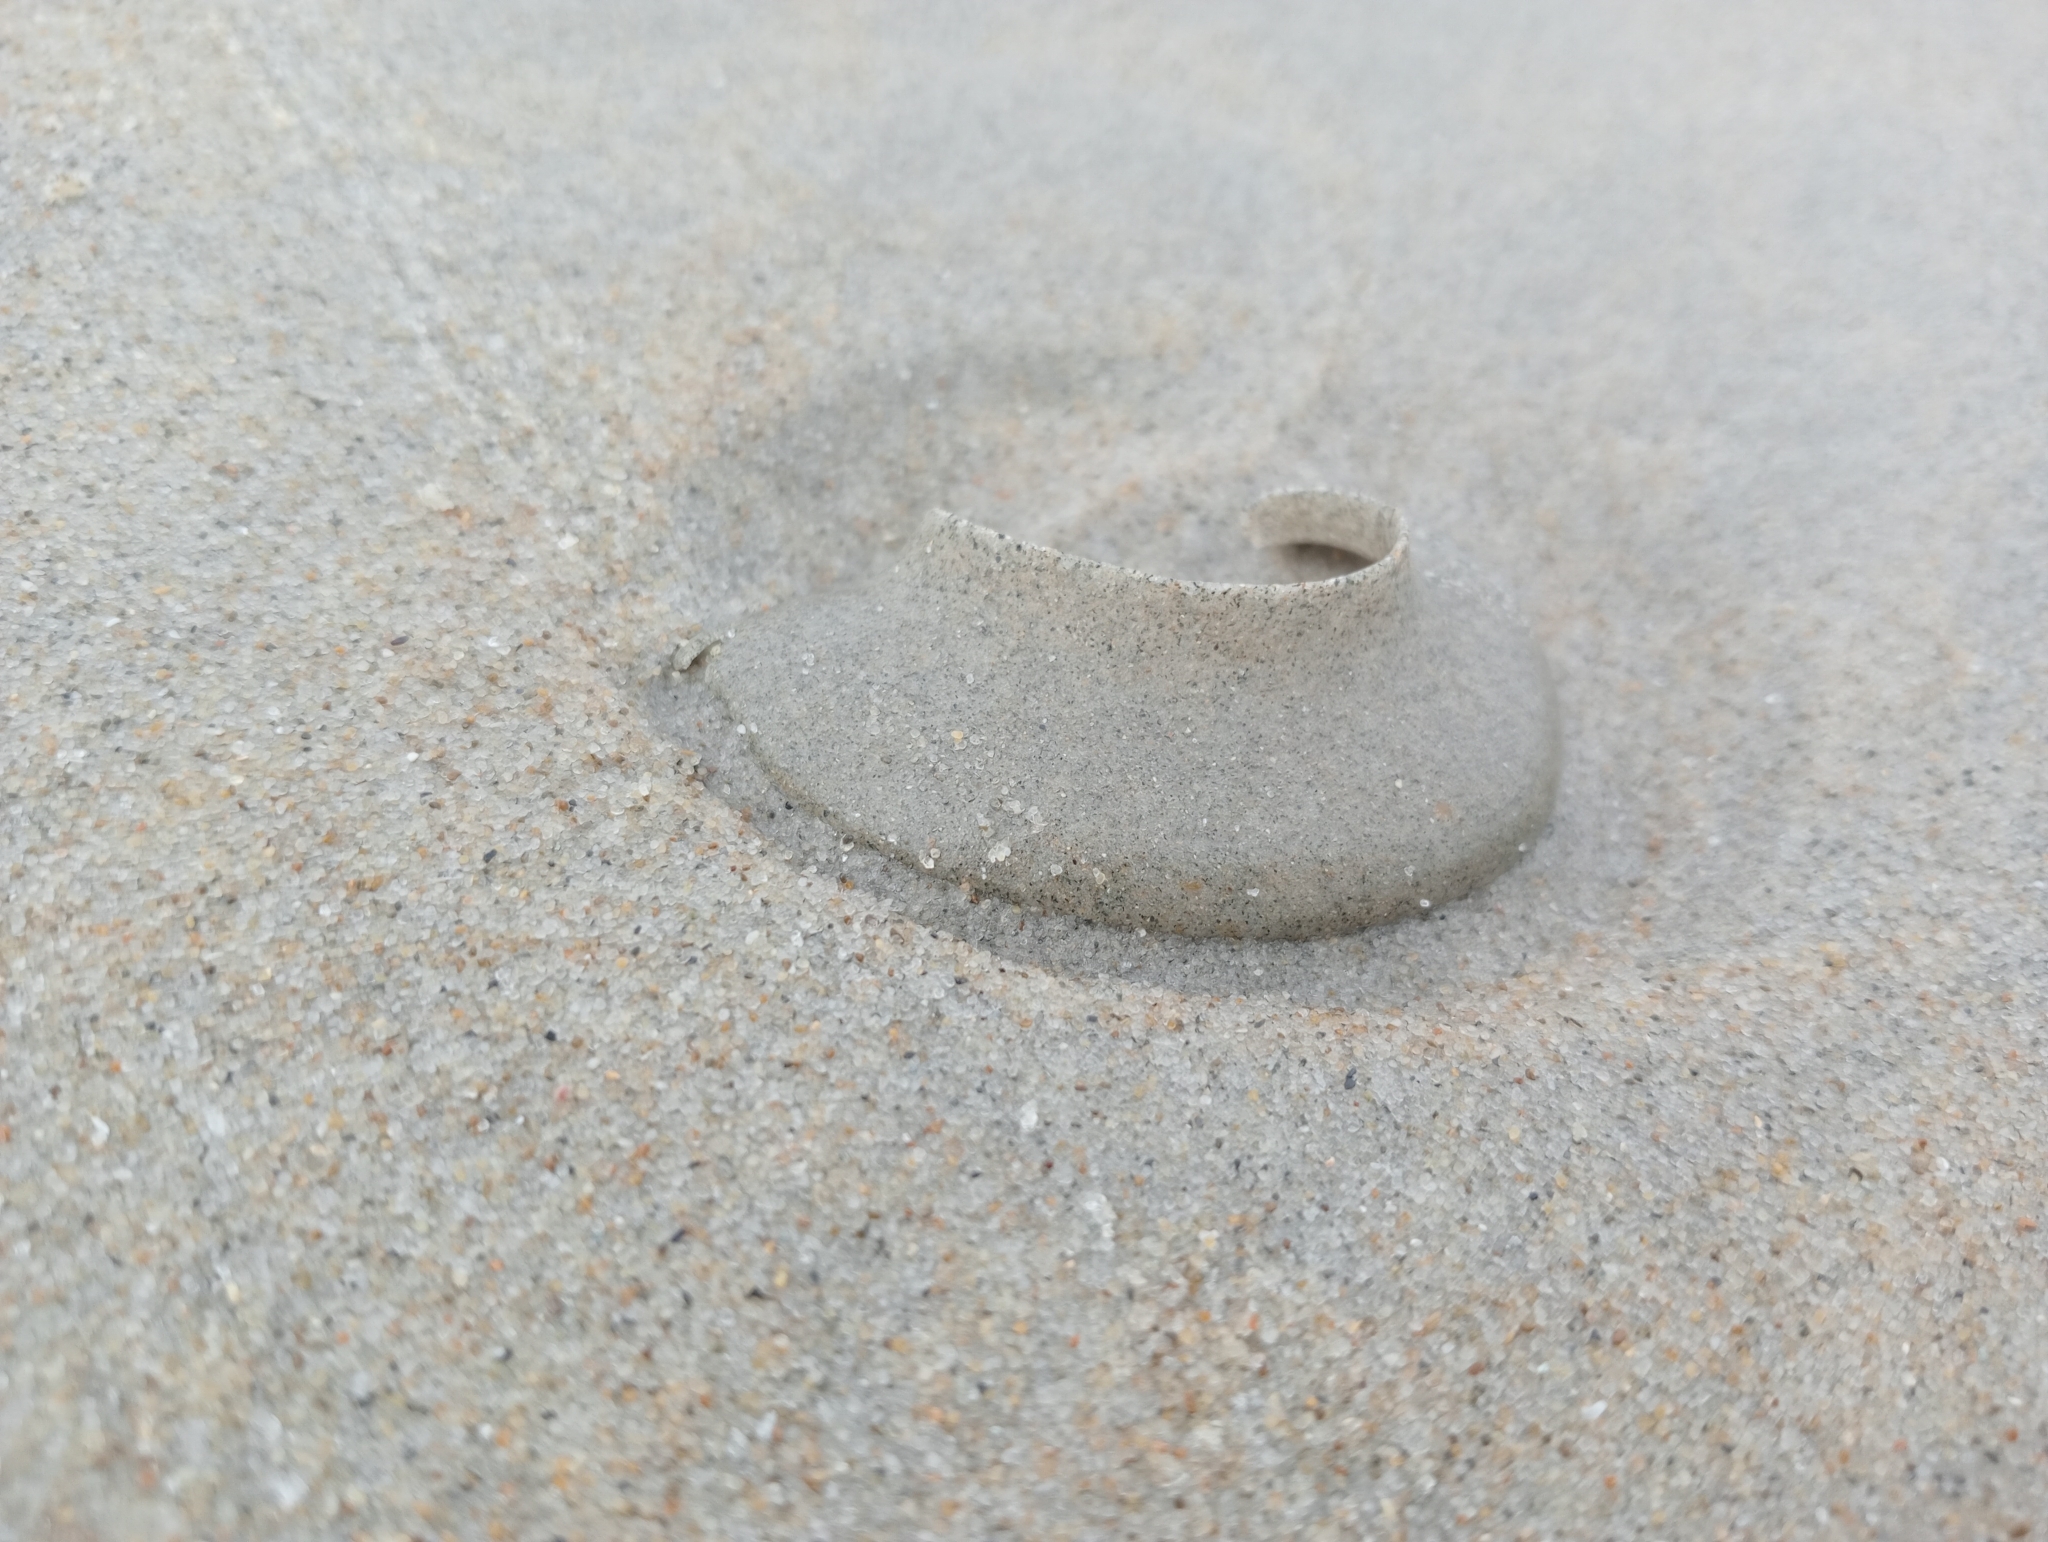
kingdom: Animalia
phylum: Mollusca
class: Gastropoda
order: Littorinimorpha
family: Naticidae
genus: Tanea
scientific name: Tanea zelandica
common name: New zealand moonsnail
